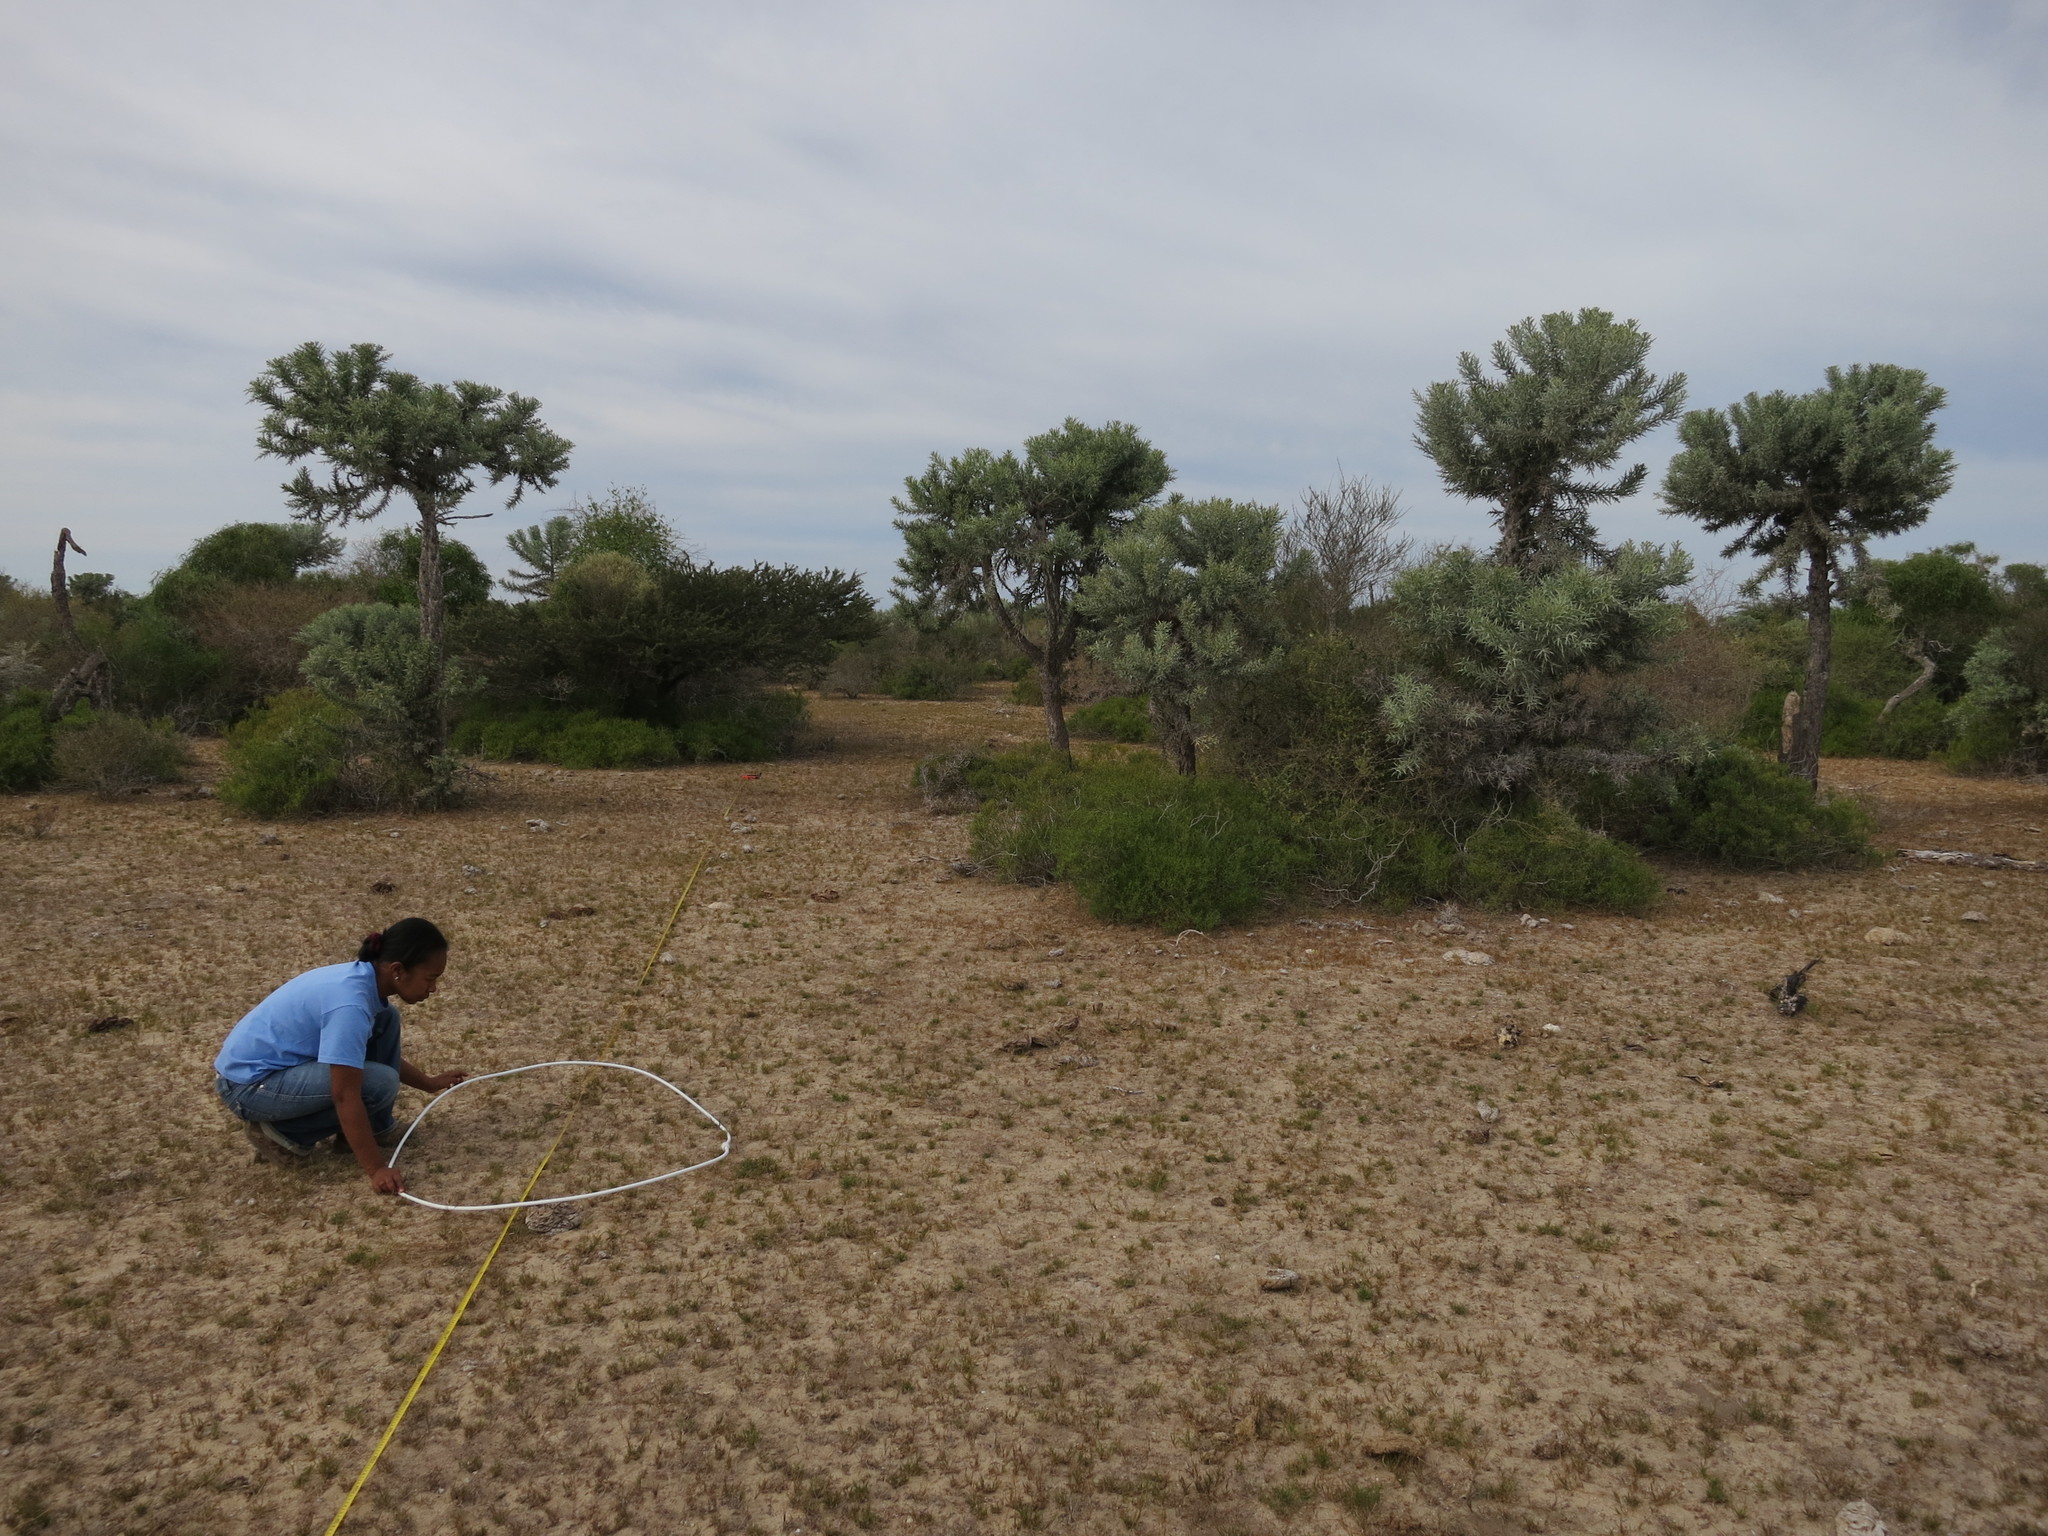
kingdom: Plantae
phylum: Tracheophyta
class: Magnoliopsida
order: Malpighiales
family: Euphorbiaceae
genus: Euphorbia
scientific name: Euphorbia stenoclada
